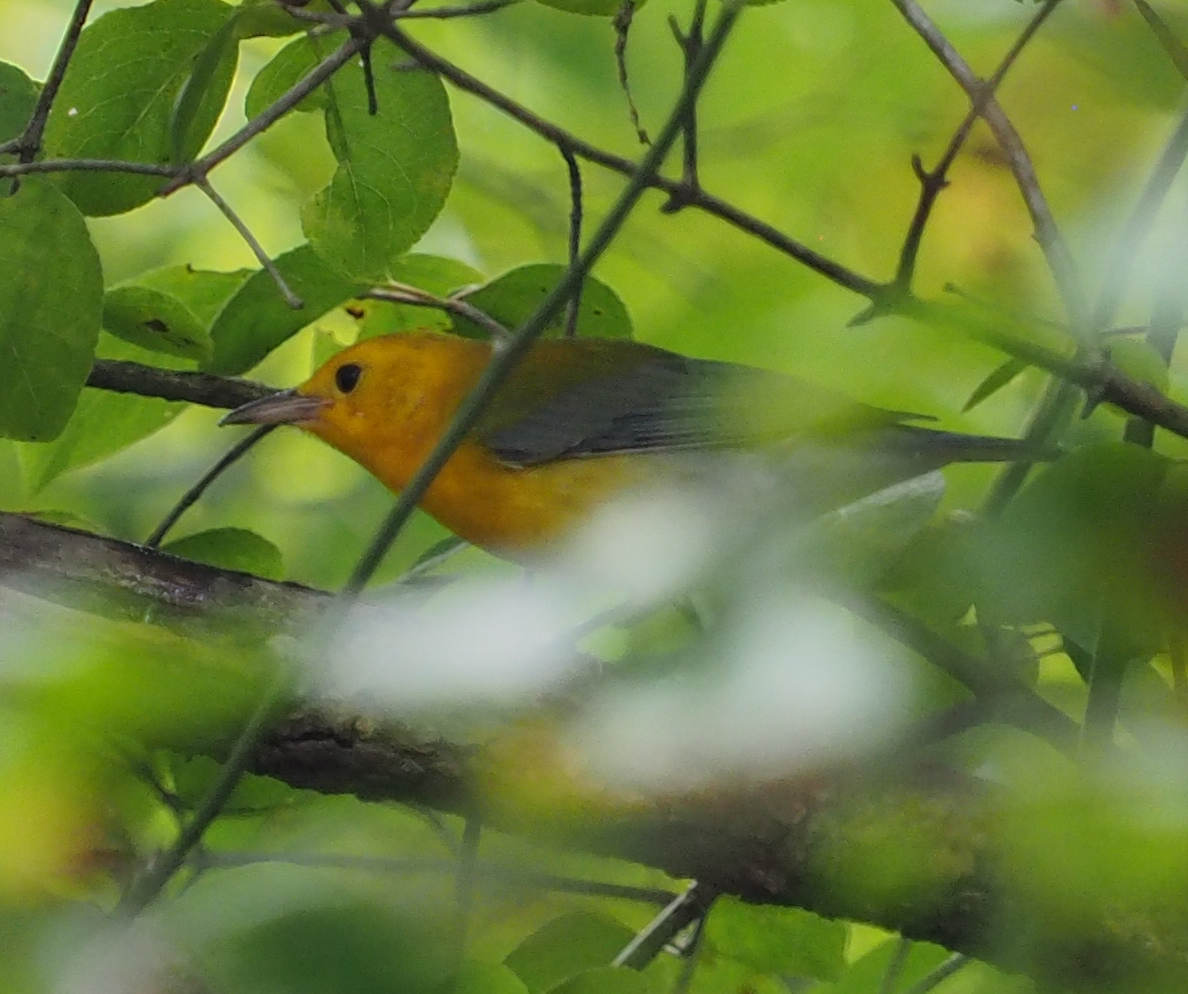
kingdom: Animalia
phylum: Chordata
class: Aves
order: Passeriformes
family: Parulidae
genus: Protonotaria
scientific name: Protonotaria citrea
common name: Prothonotary warbler
